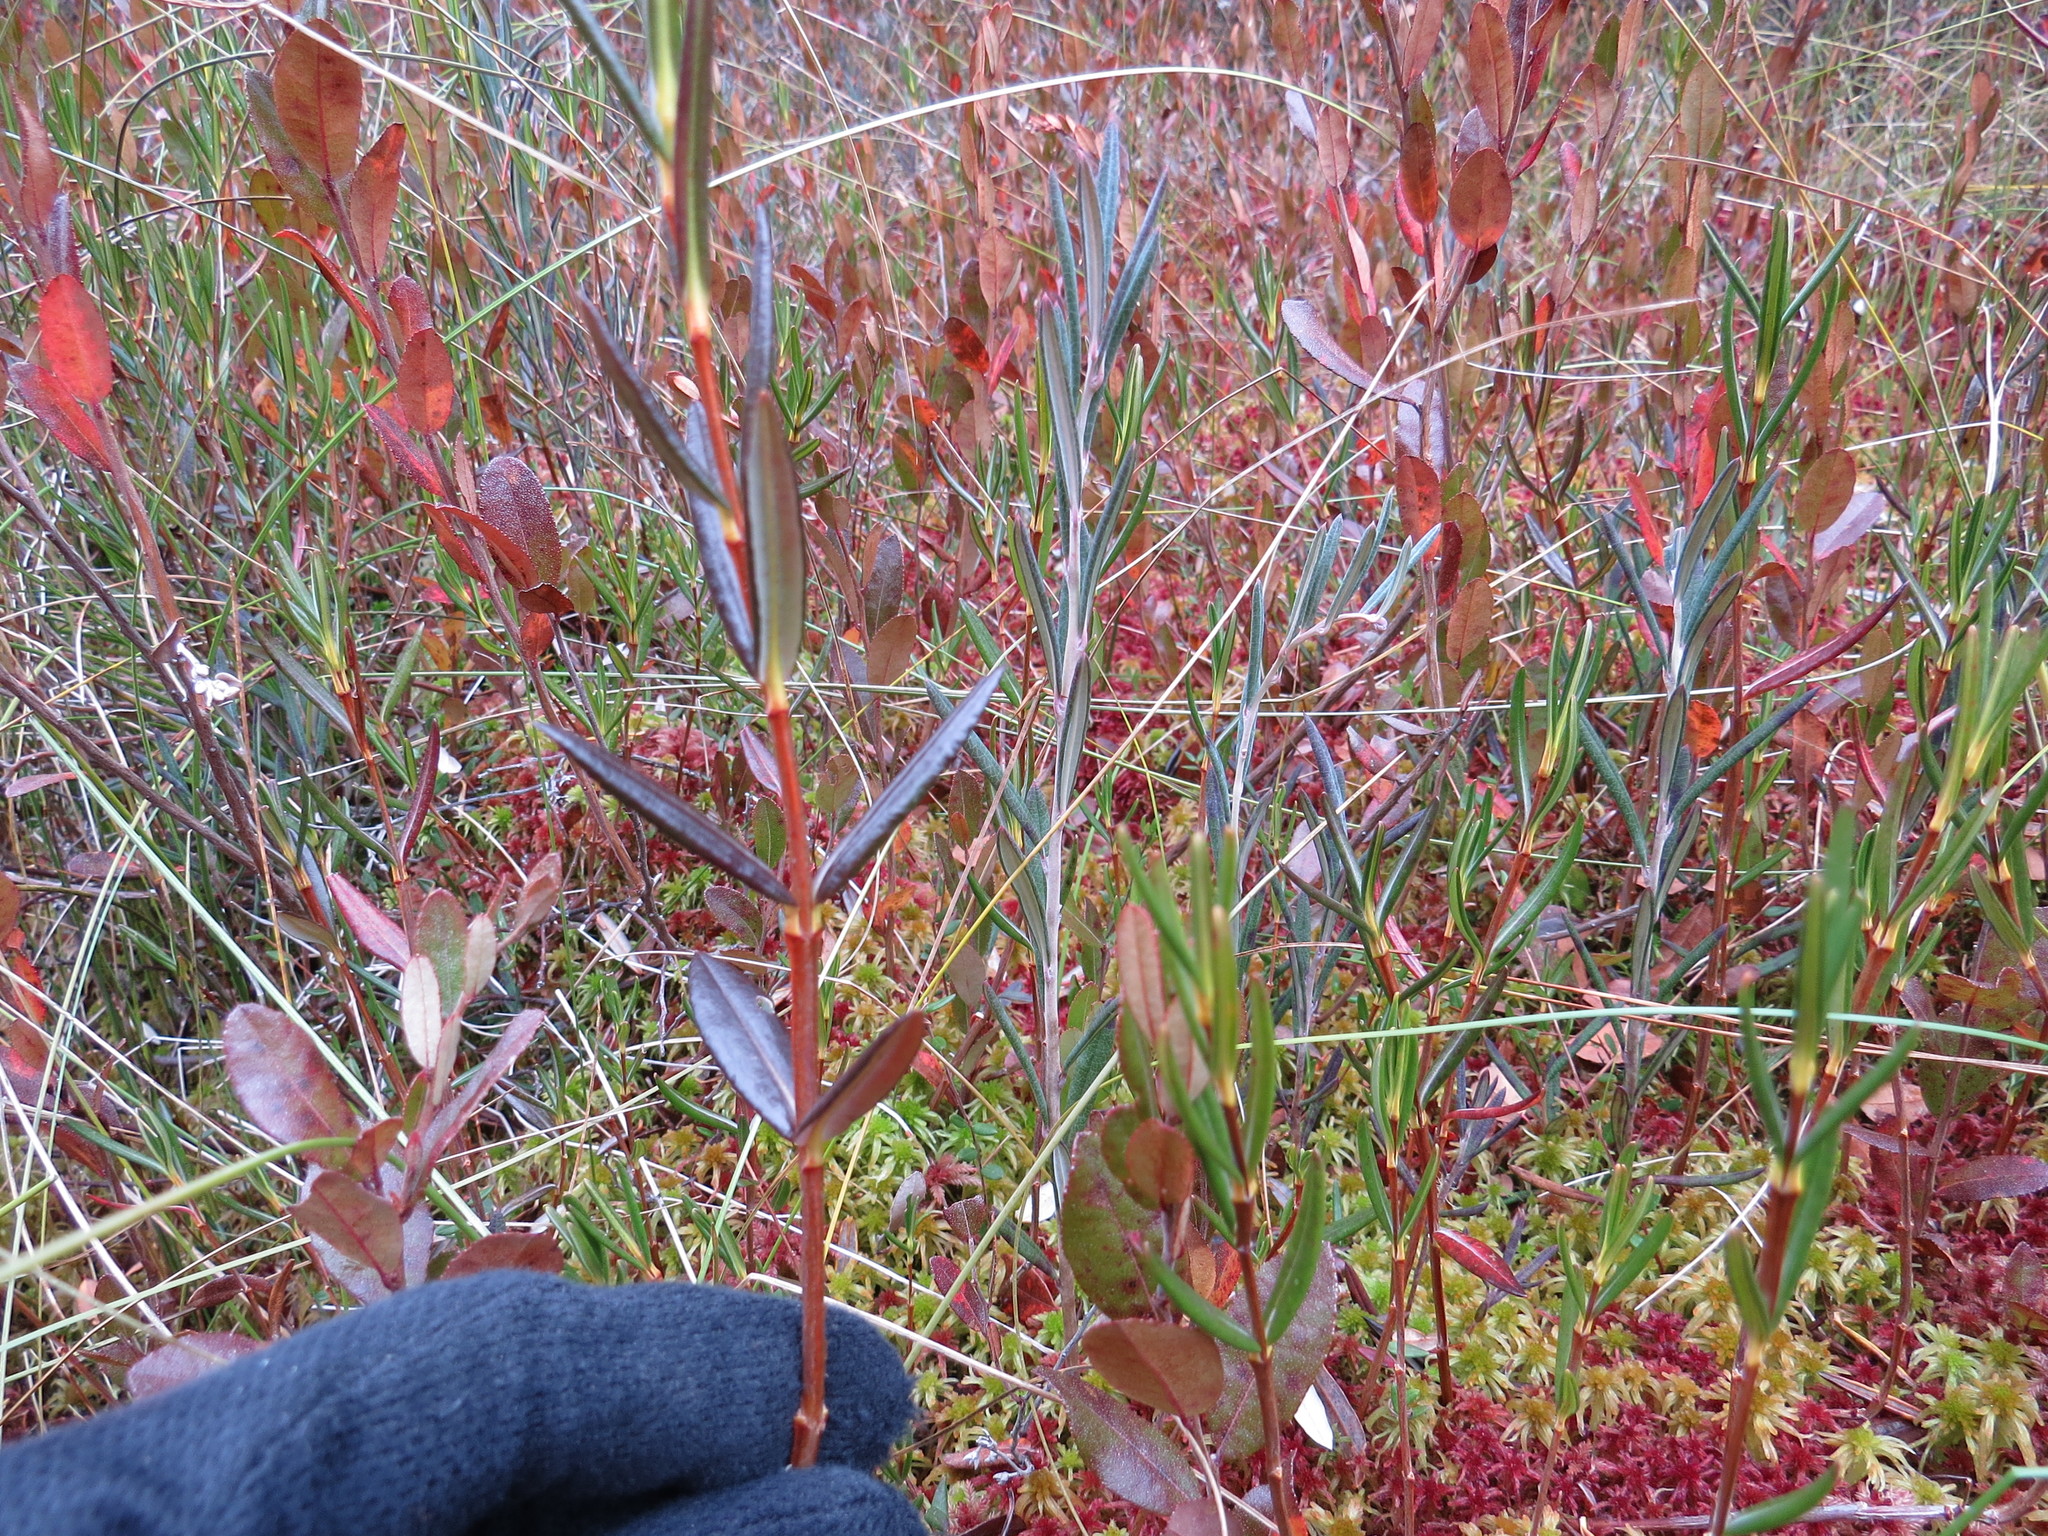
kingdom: Plantae
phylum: Tracheophyta
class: Magnoliopsida
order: Ericales
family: Ericaceae
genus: Kalmia
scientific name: Kalmia polifolia
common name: Bog-laurel
